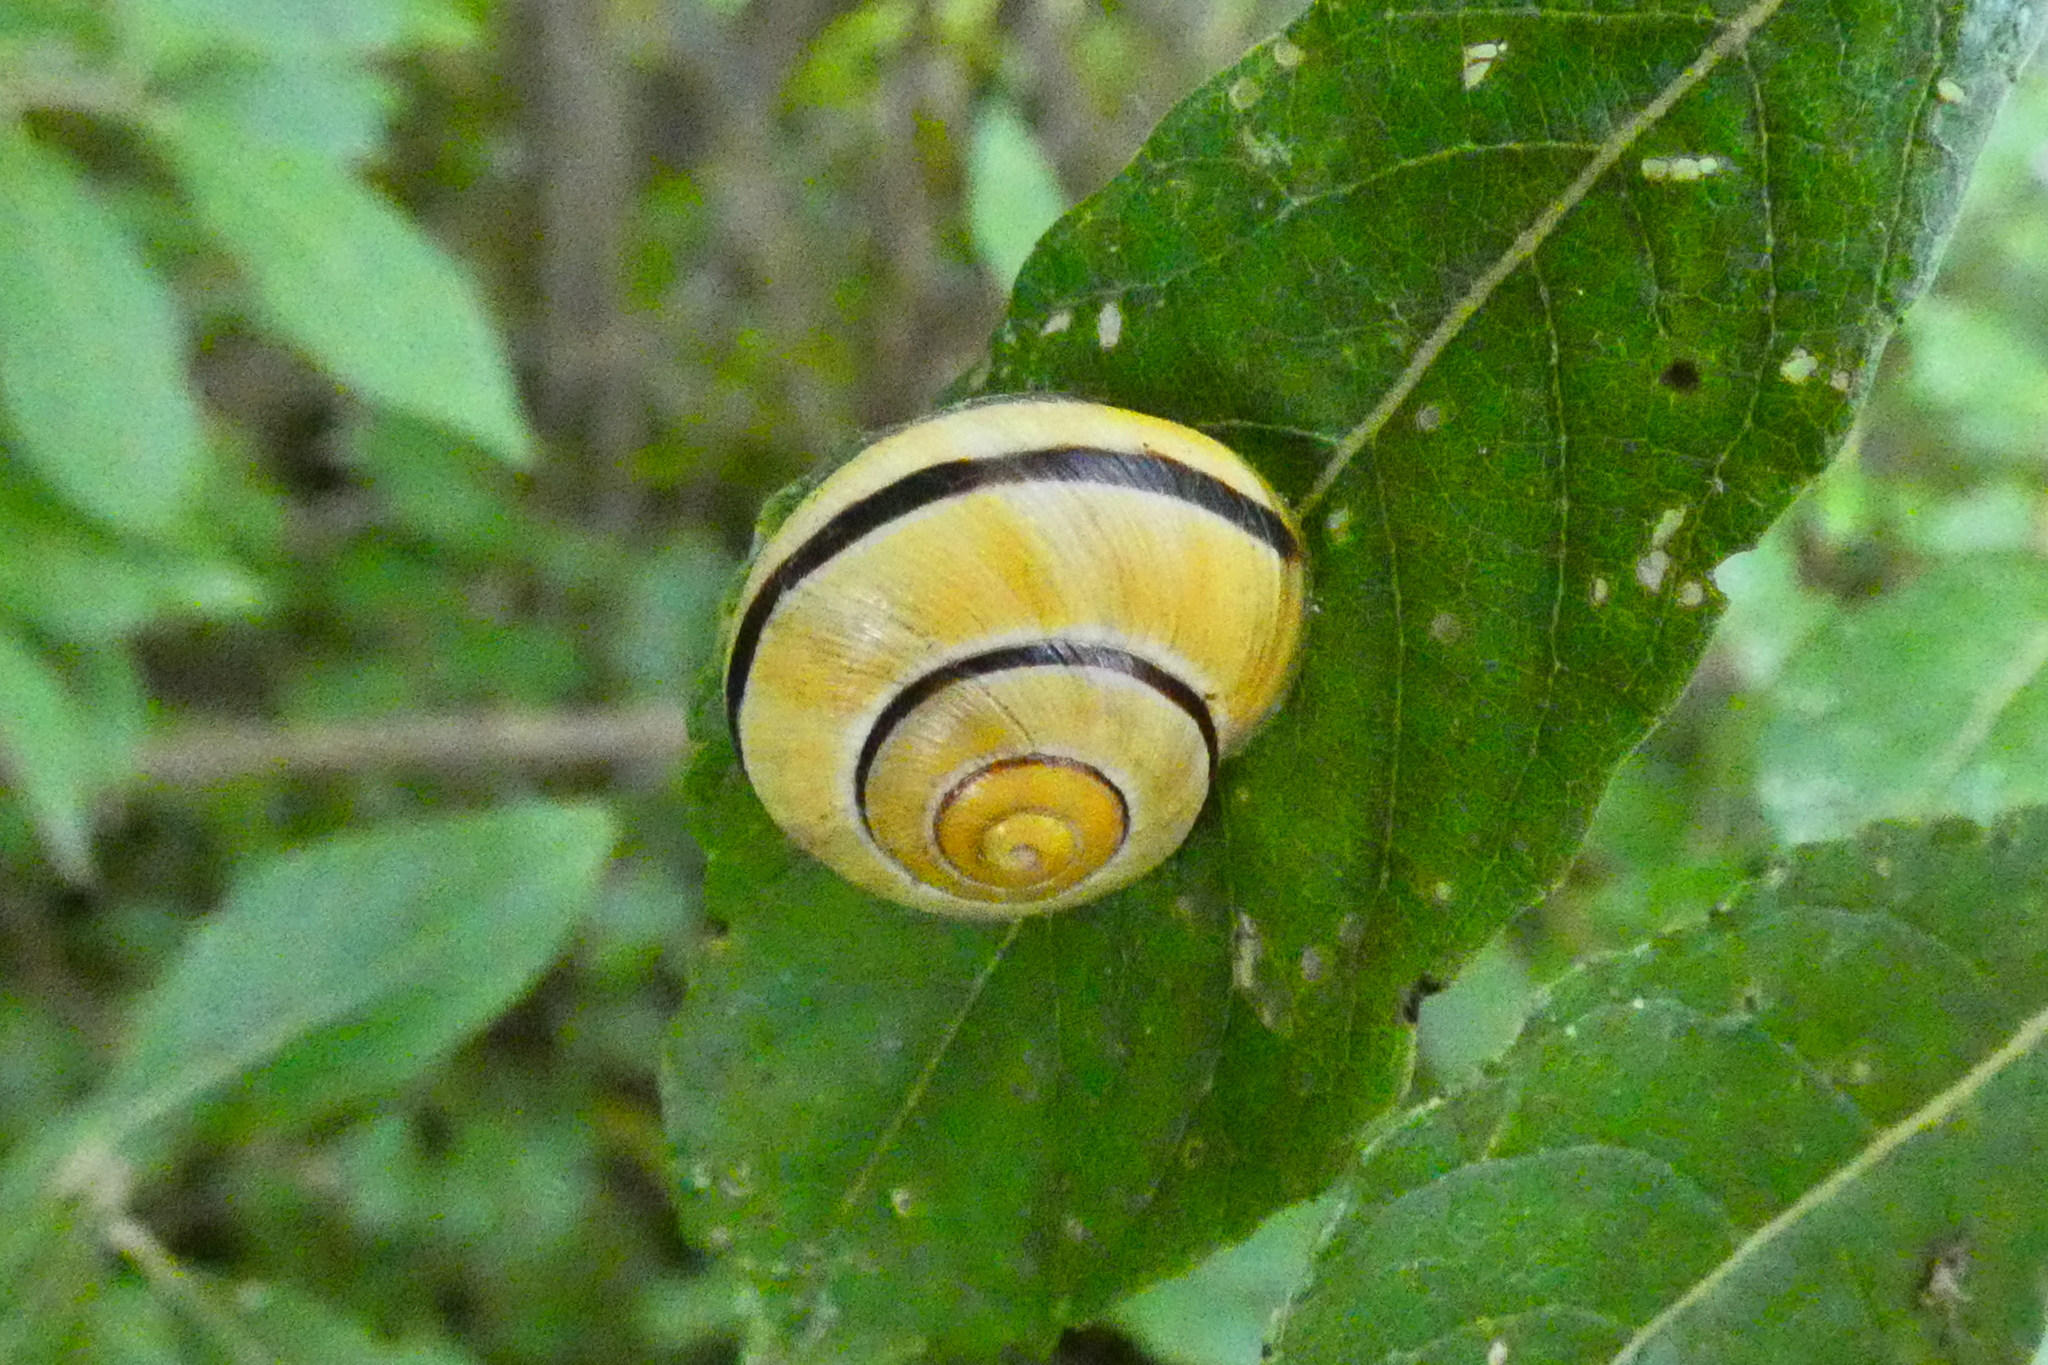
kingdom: Animalia
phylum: Mollusca
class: Gastropoda
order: Stylommatophora
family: Helicidae
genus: Cepaea
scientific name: Cepaea nemoralis
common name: Grovesnail
